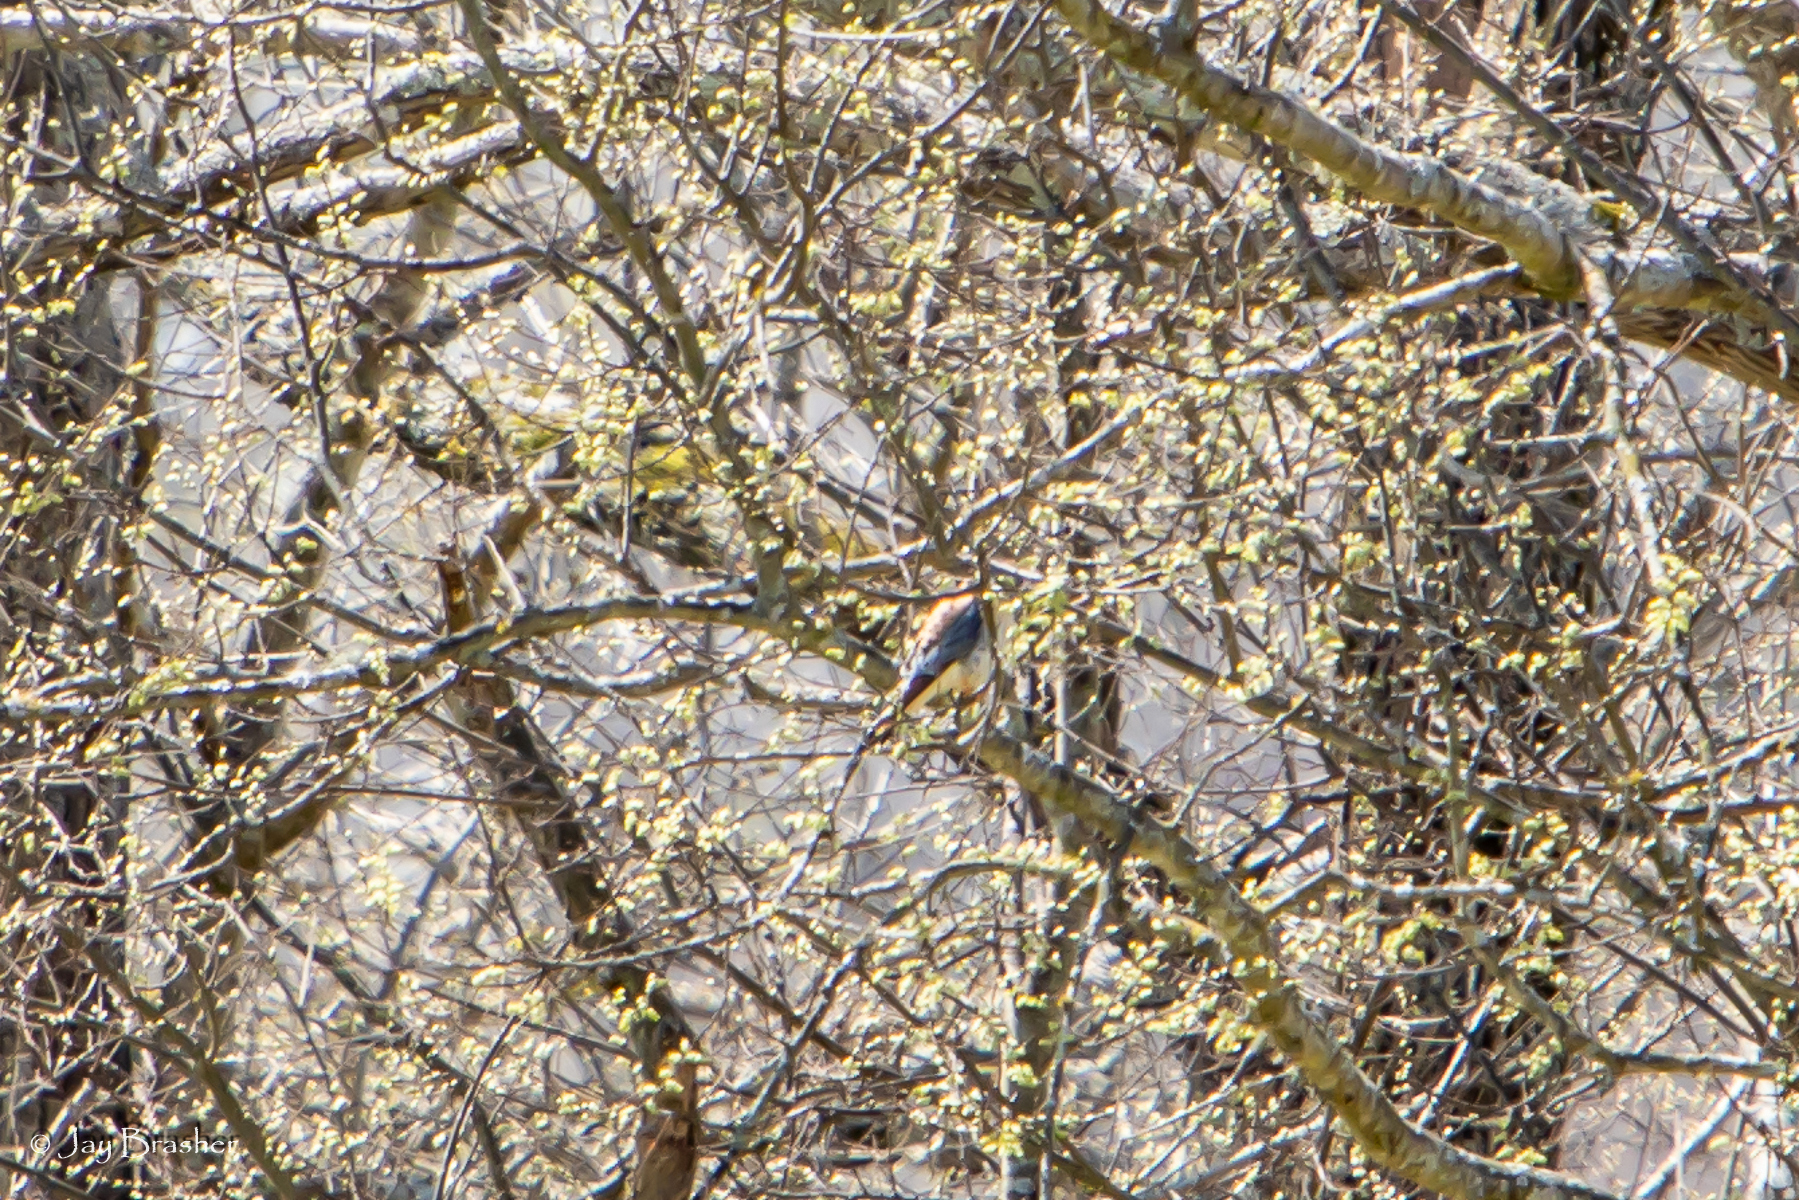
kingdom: Animalia
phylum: Chordata
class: Aves
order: Falconiformes
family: Falconidae
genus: Falco
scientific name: Falco sparverius
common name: American kestrel
